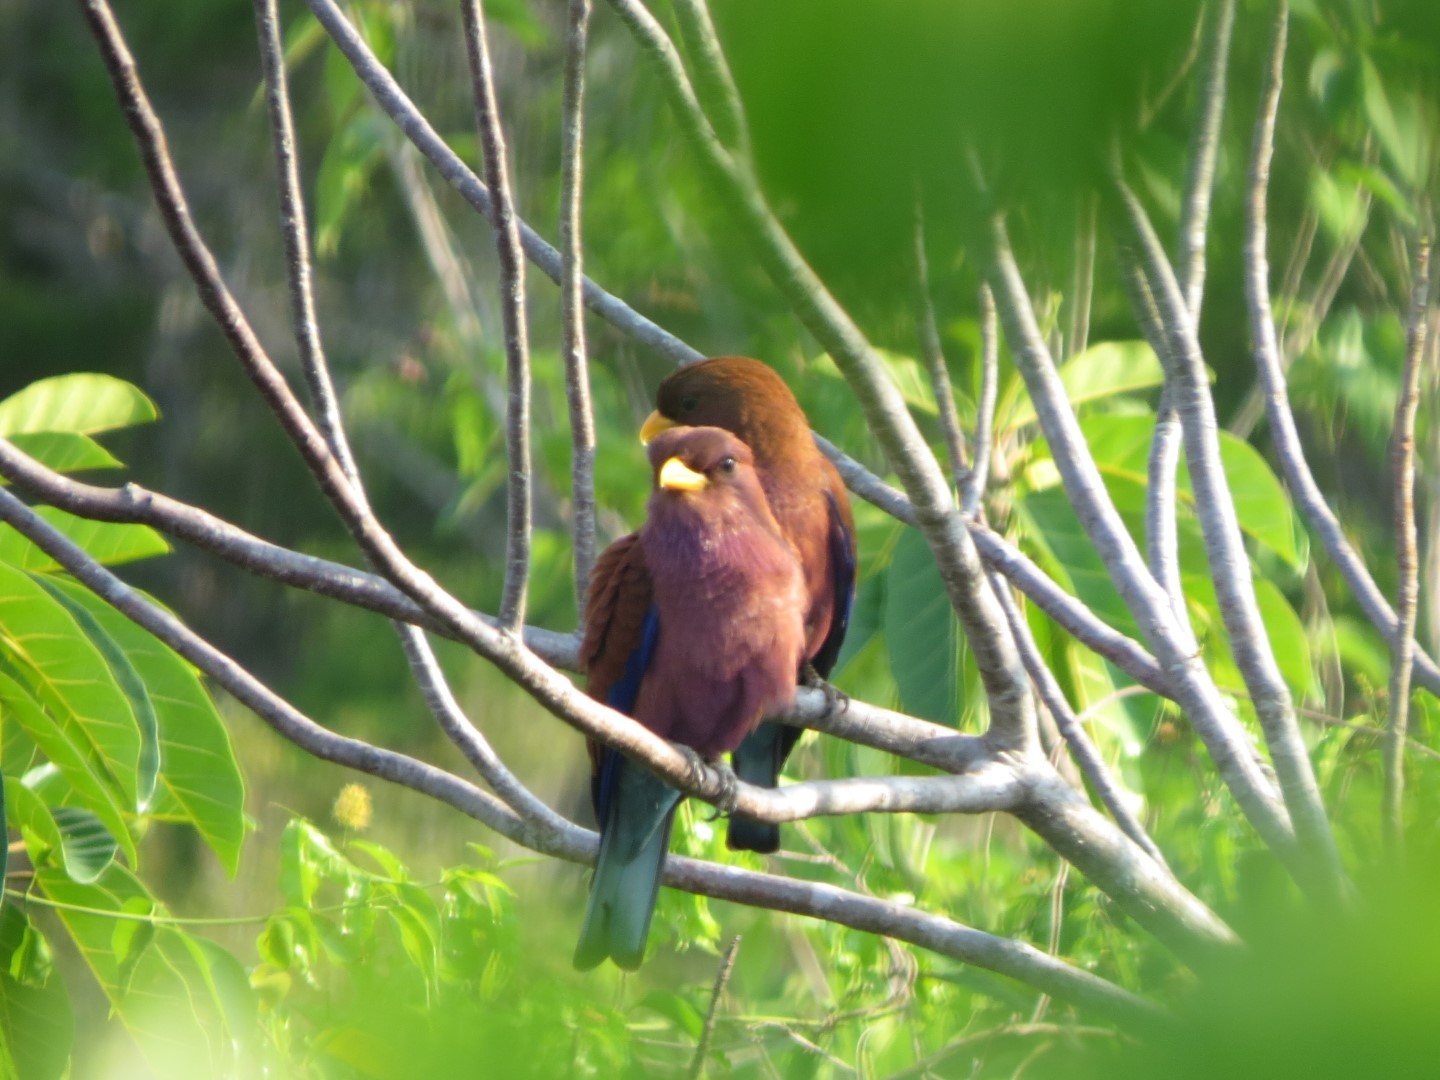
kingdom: Animalia
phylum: Chordata
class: Aves
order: Coraciiformes
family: Coraciidae
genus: Eurystomus
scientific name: Eurystomus glaucurus
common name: Broad-billed roller
